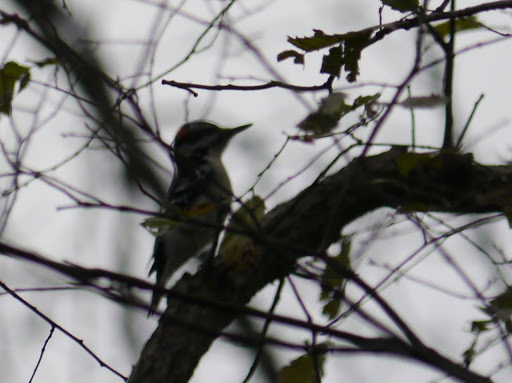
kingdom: Animalia
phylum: Chordata
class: Aves
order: Piciformes
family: Picidae
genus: Leuconotopicus
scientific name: Leuconotopicus villosus
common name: Hairy woodpecker
